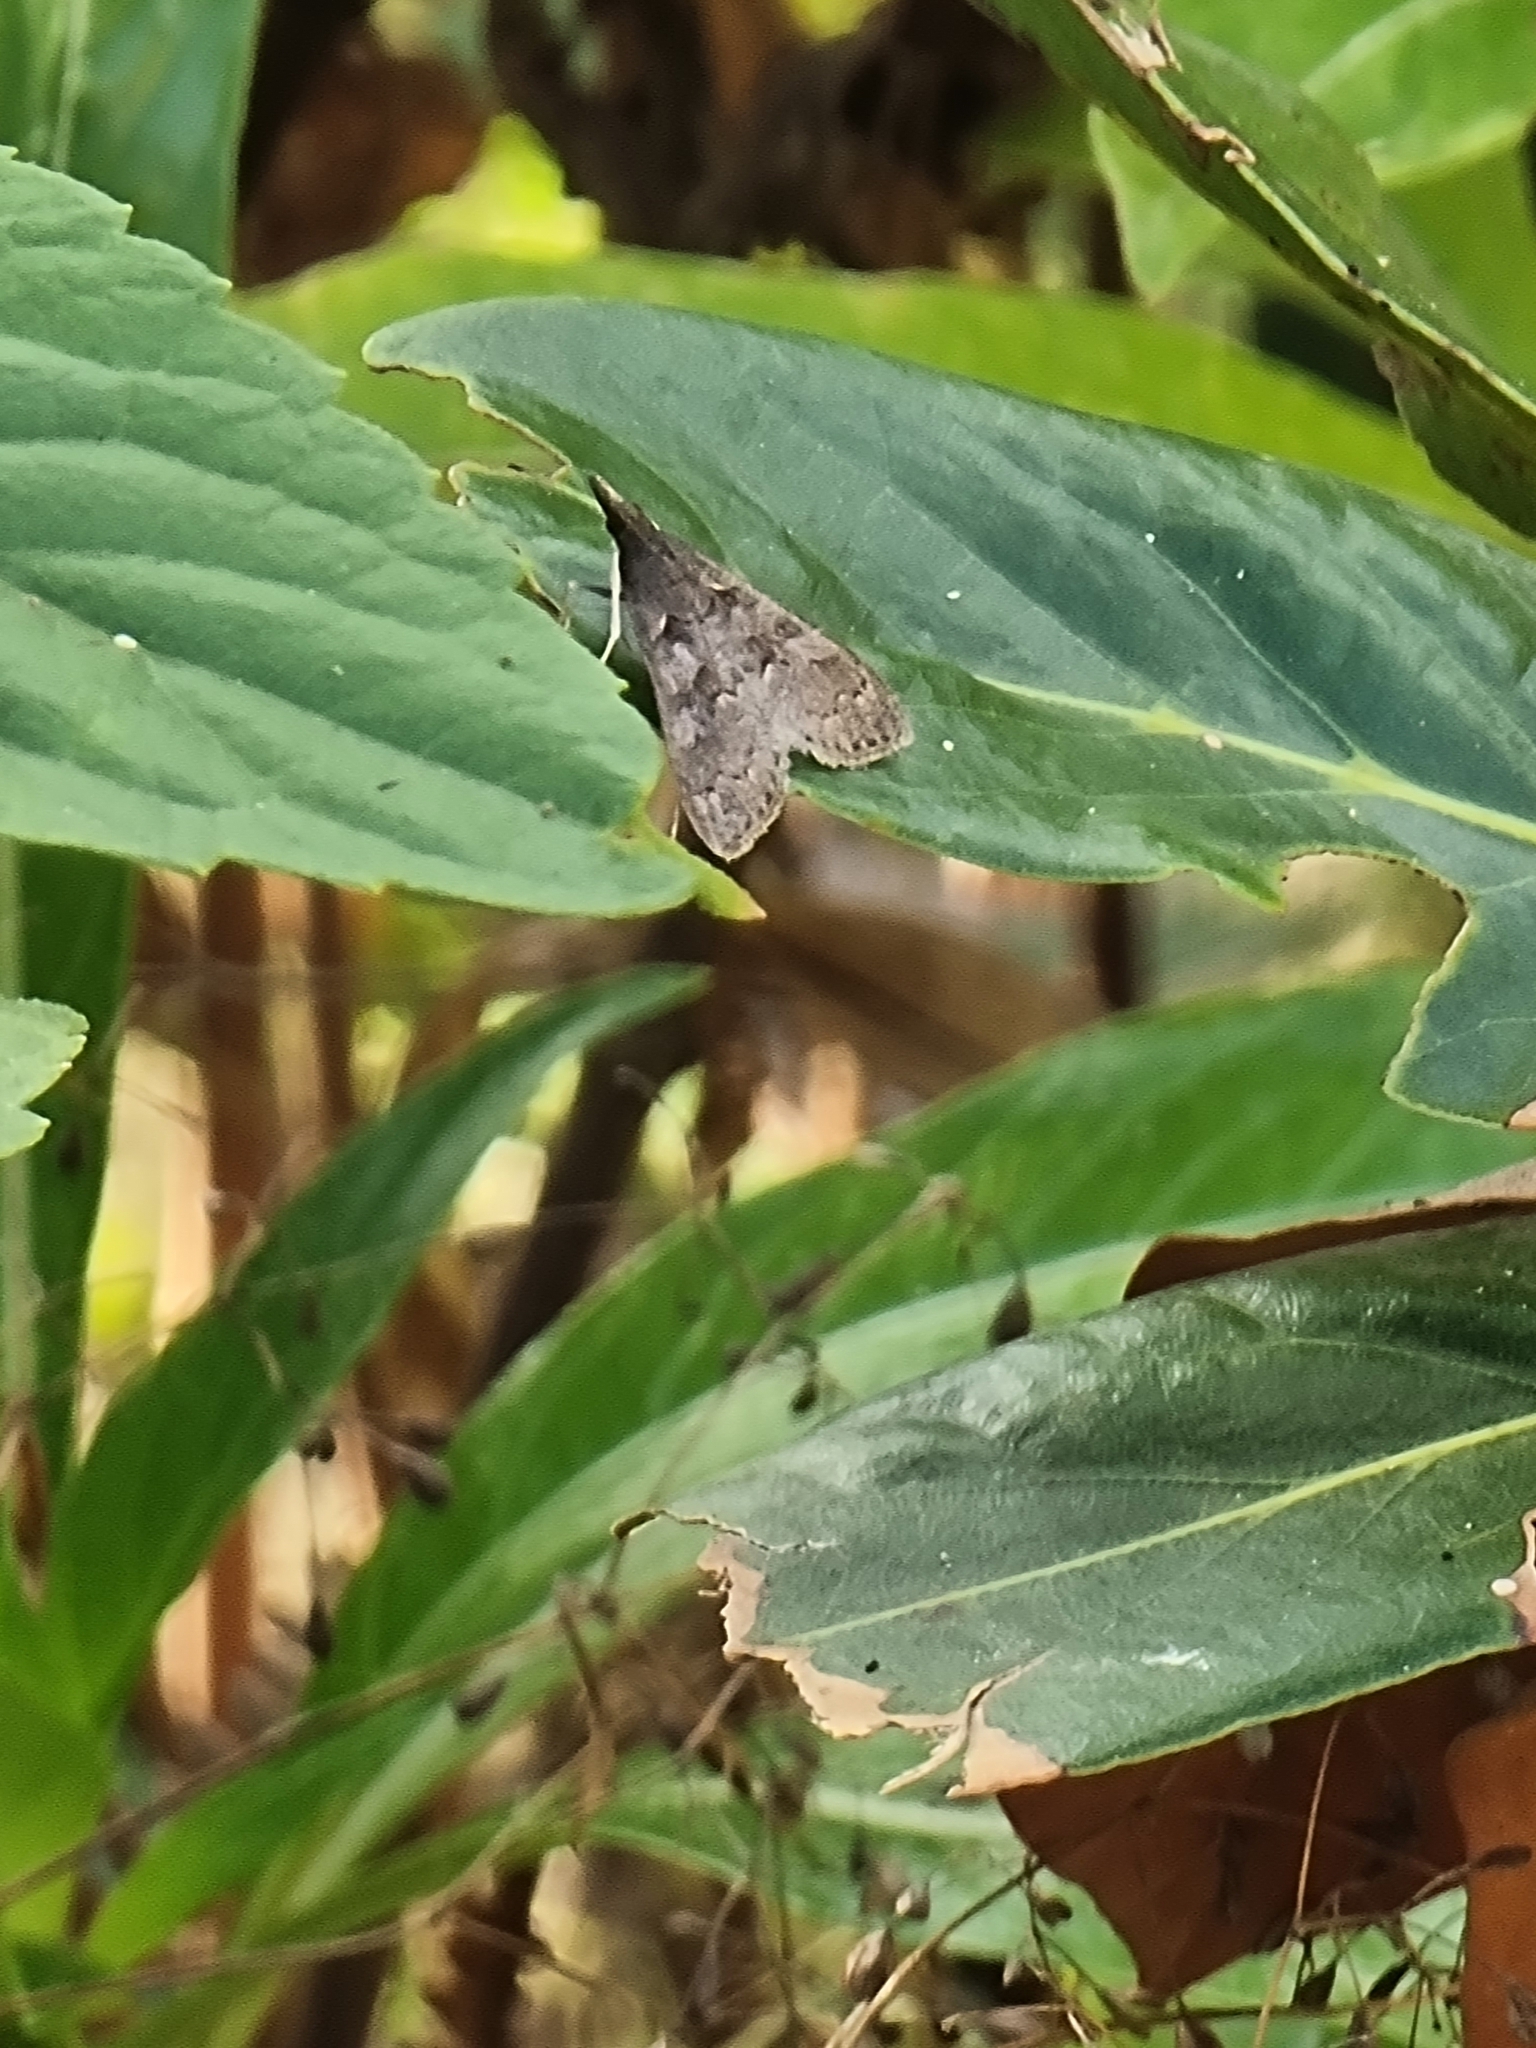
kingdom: Animalia
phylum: Arthropoda
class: Insecta
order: Lepidoptera
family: Crambidae
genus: Mecyna
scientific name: Mecyna asinalis
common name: Coastal pearl
